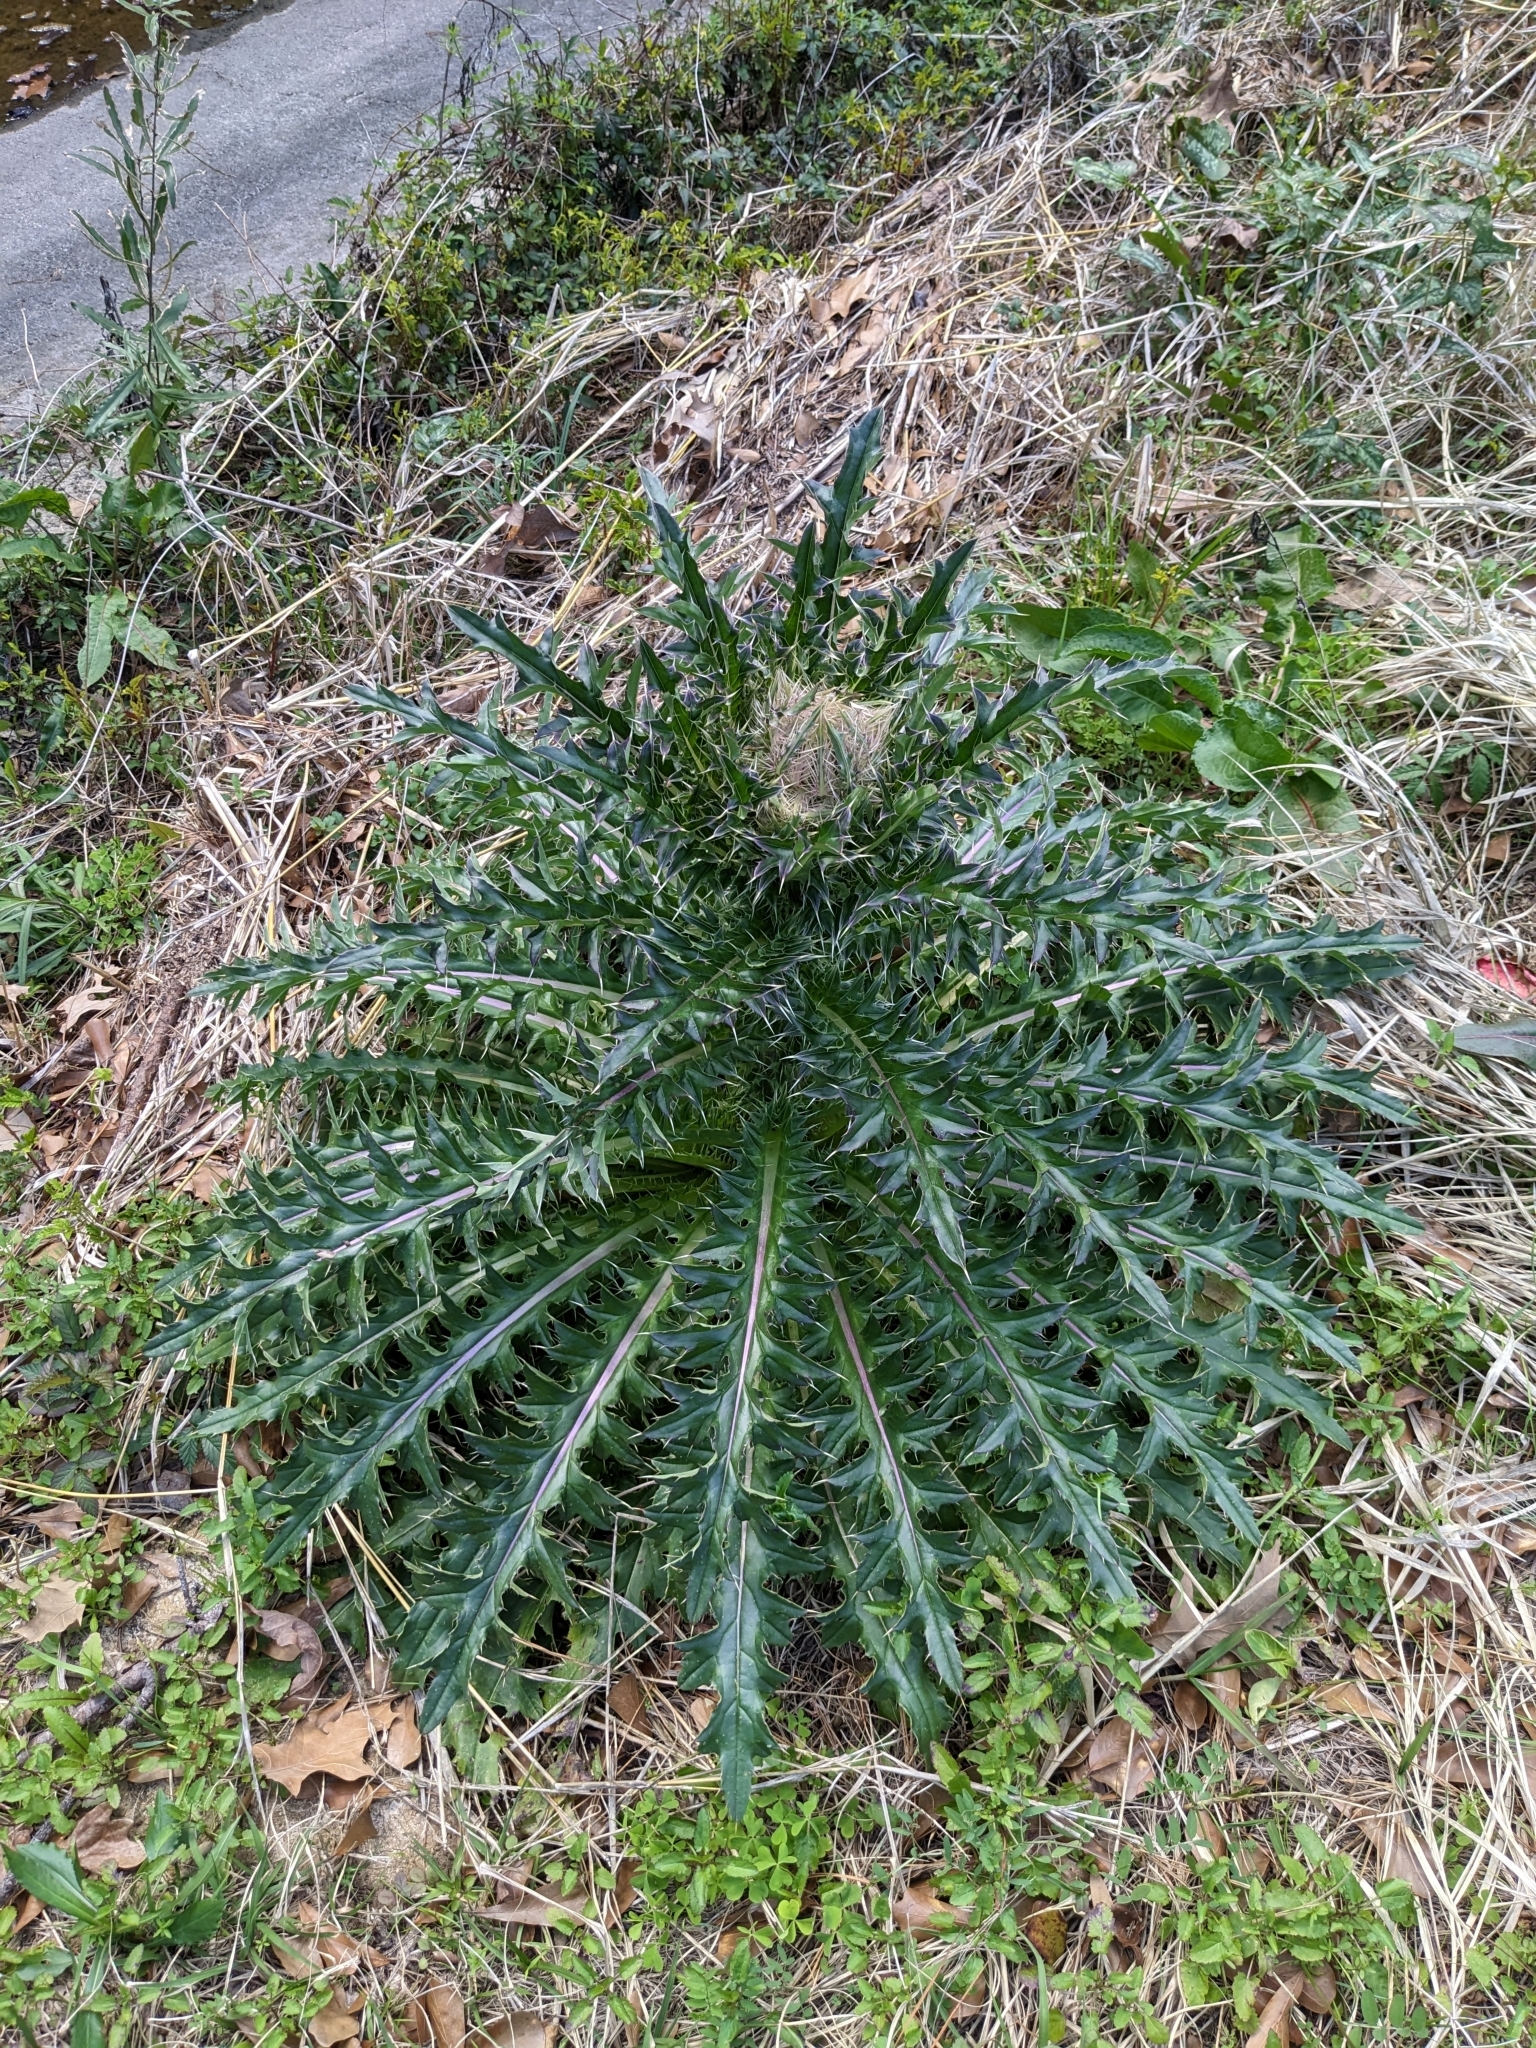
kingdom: Plantae
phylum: Tracheophyta
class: Magnoliopsida
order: Asterales
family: Asteraceae
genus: Cirsium
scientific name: Cirsium horridulum
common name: Bristly thistle
